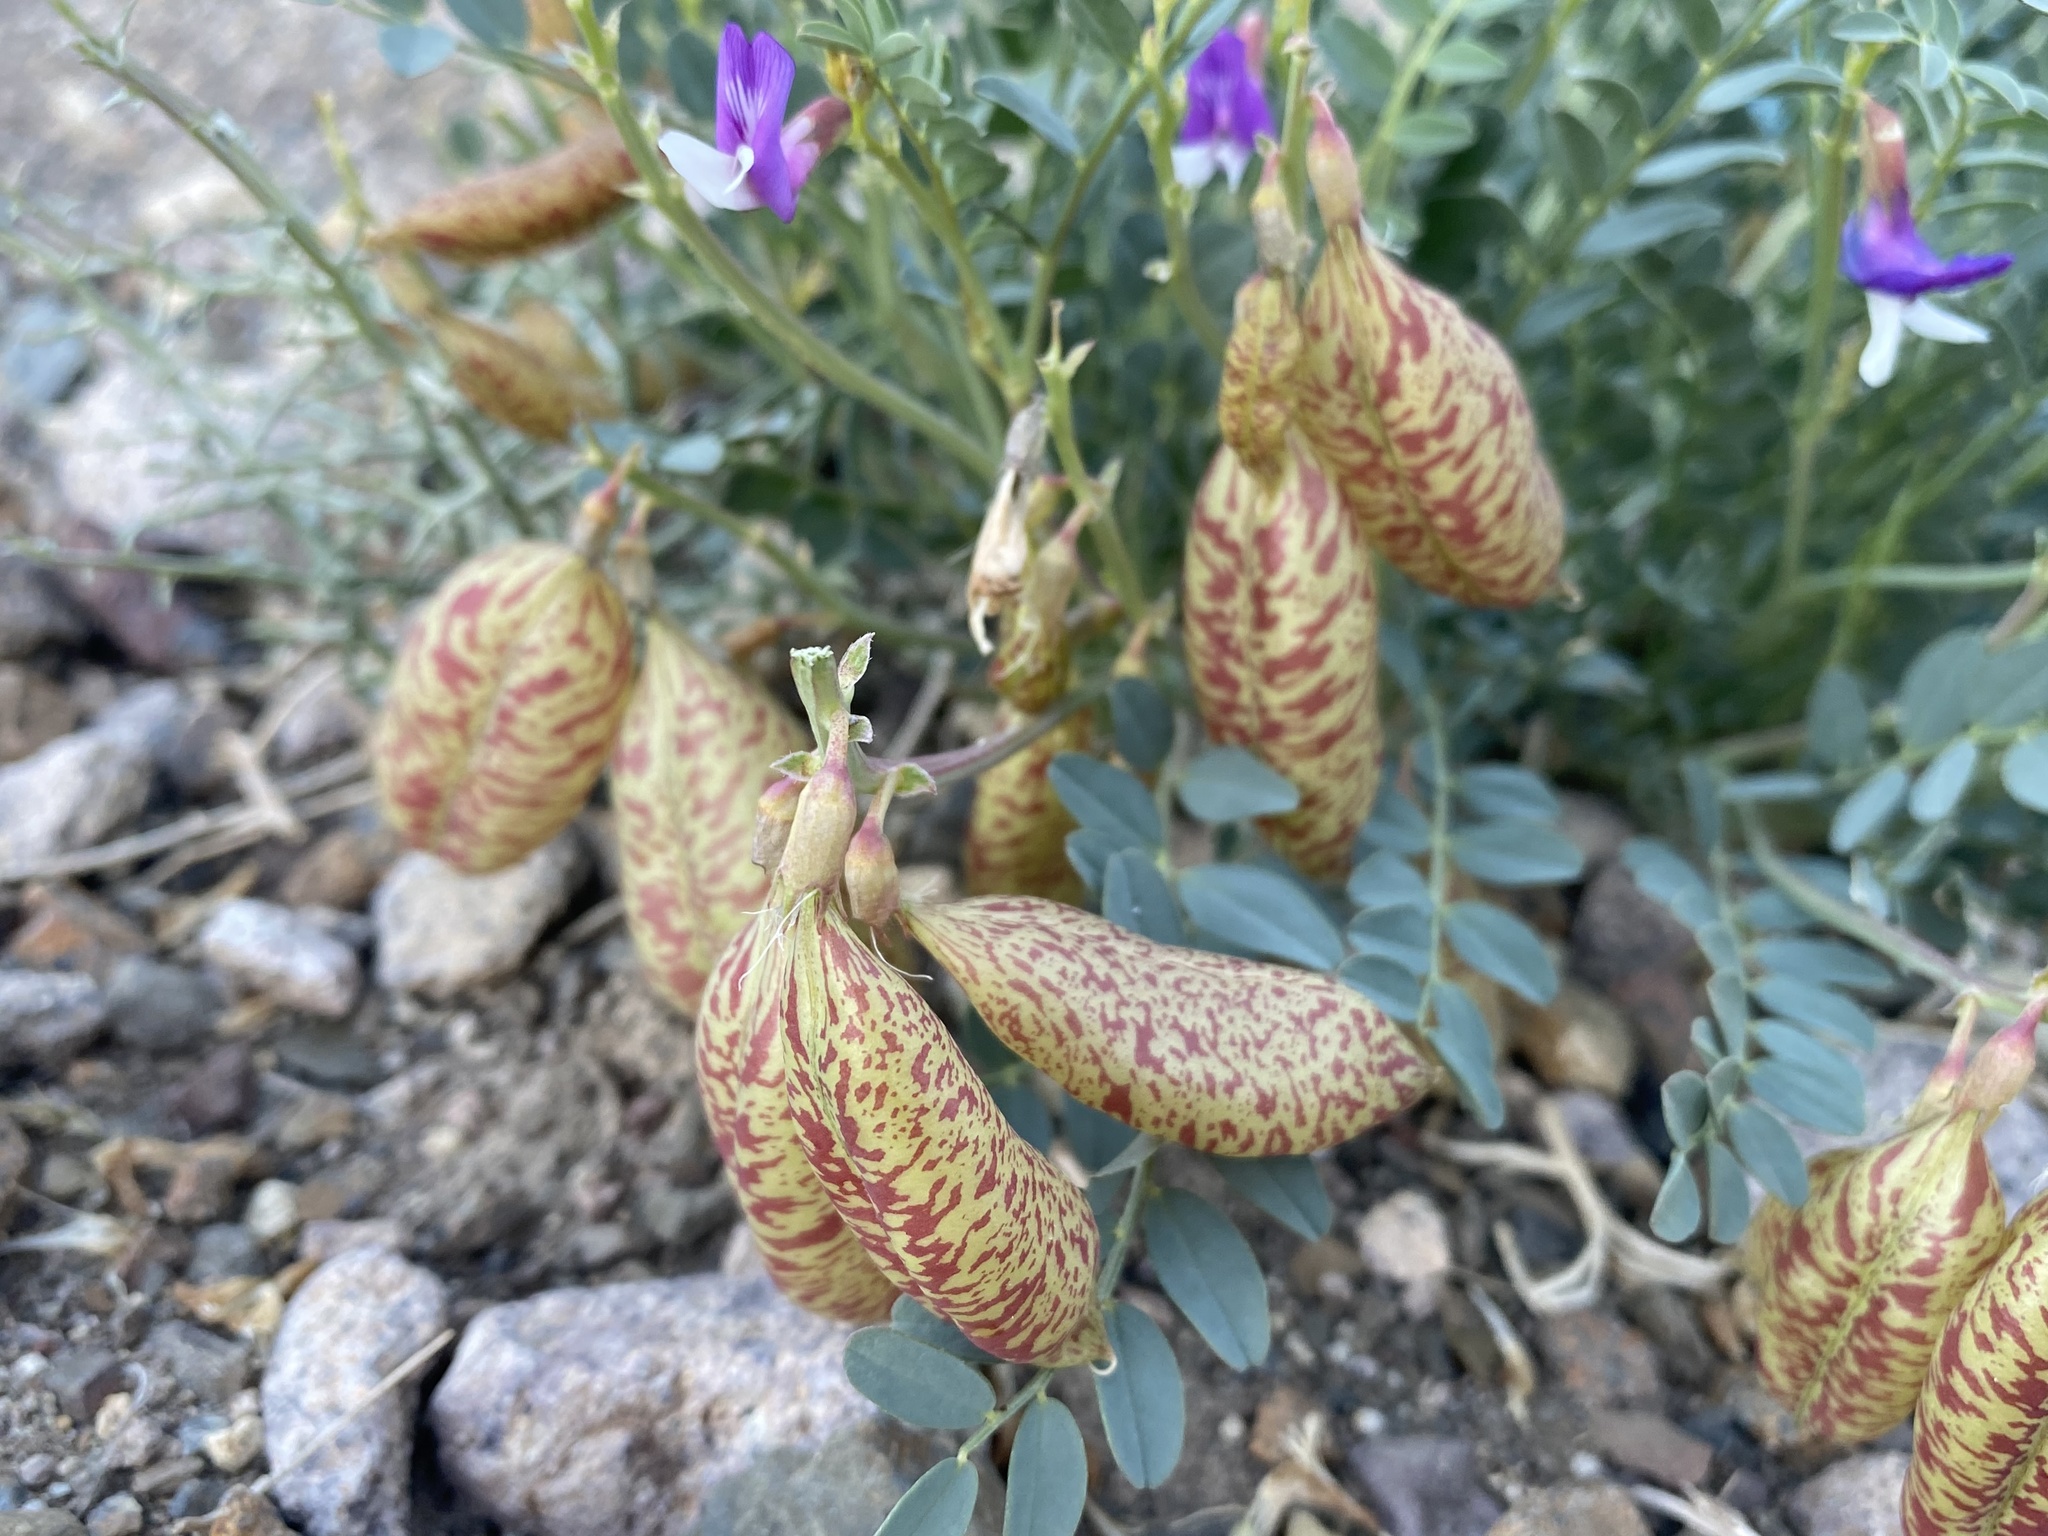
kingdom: Plantae
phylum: Tracheophyta
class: Magnoliopsida
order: Fabales
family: Fabaceae
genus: Astragalus
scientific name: Astragalus oophorus
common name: Egg milkvetch
